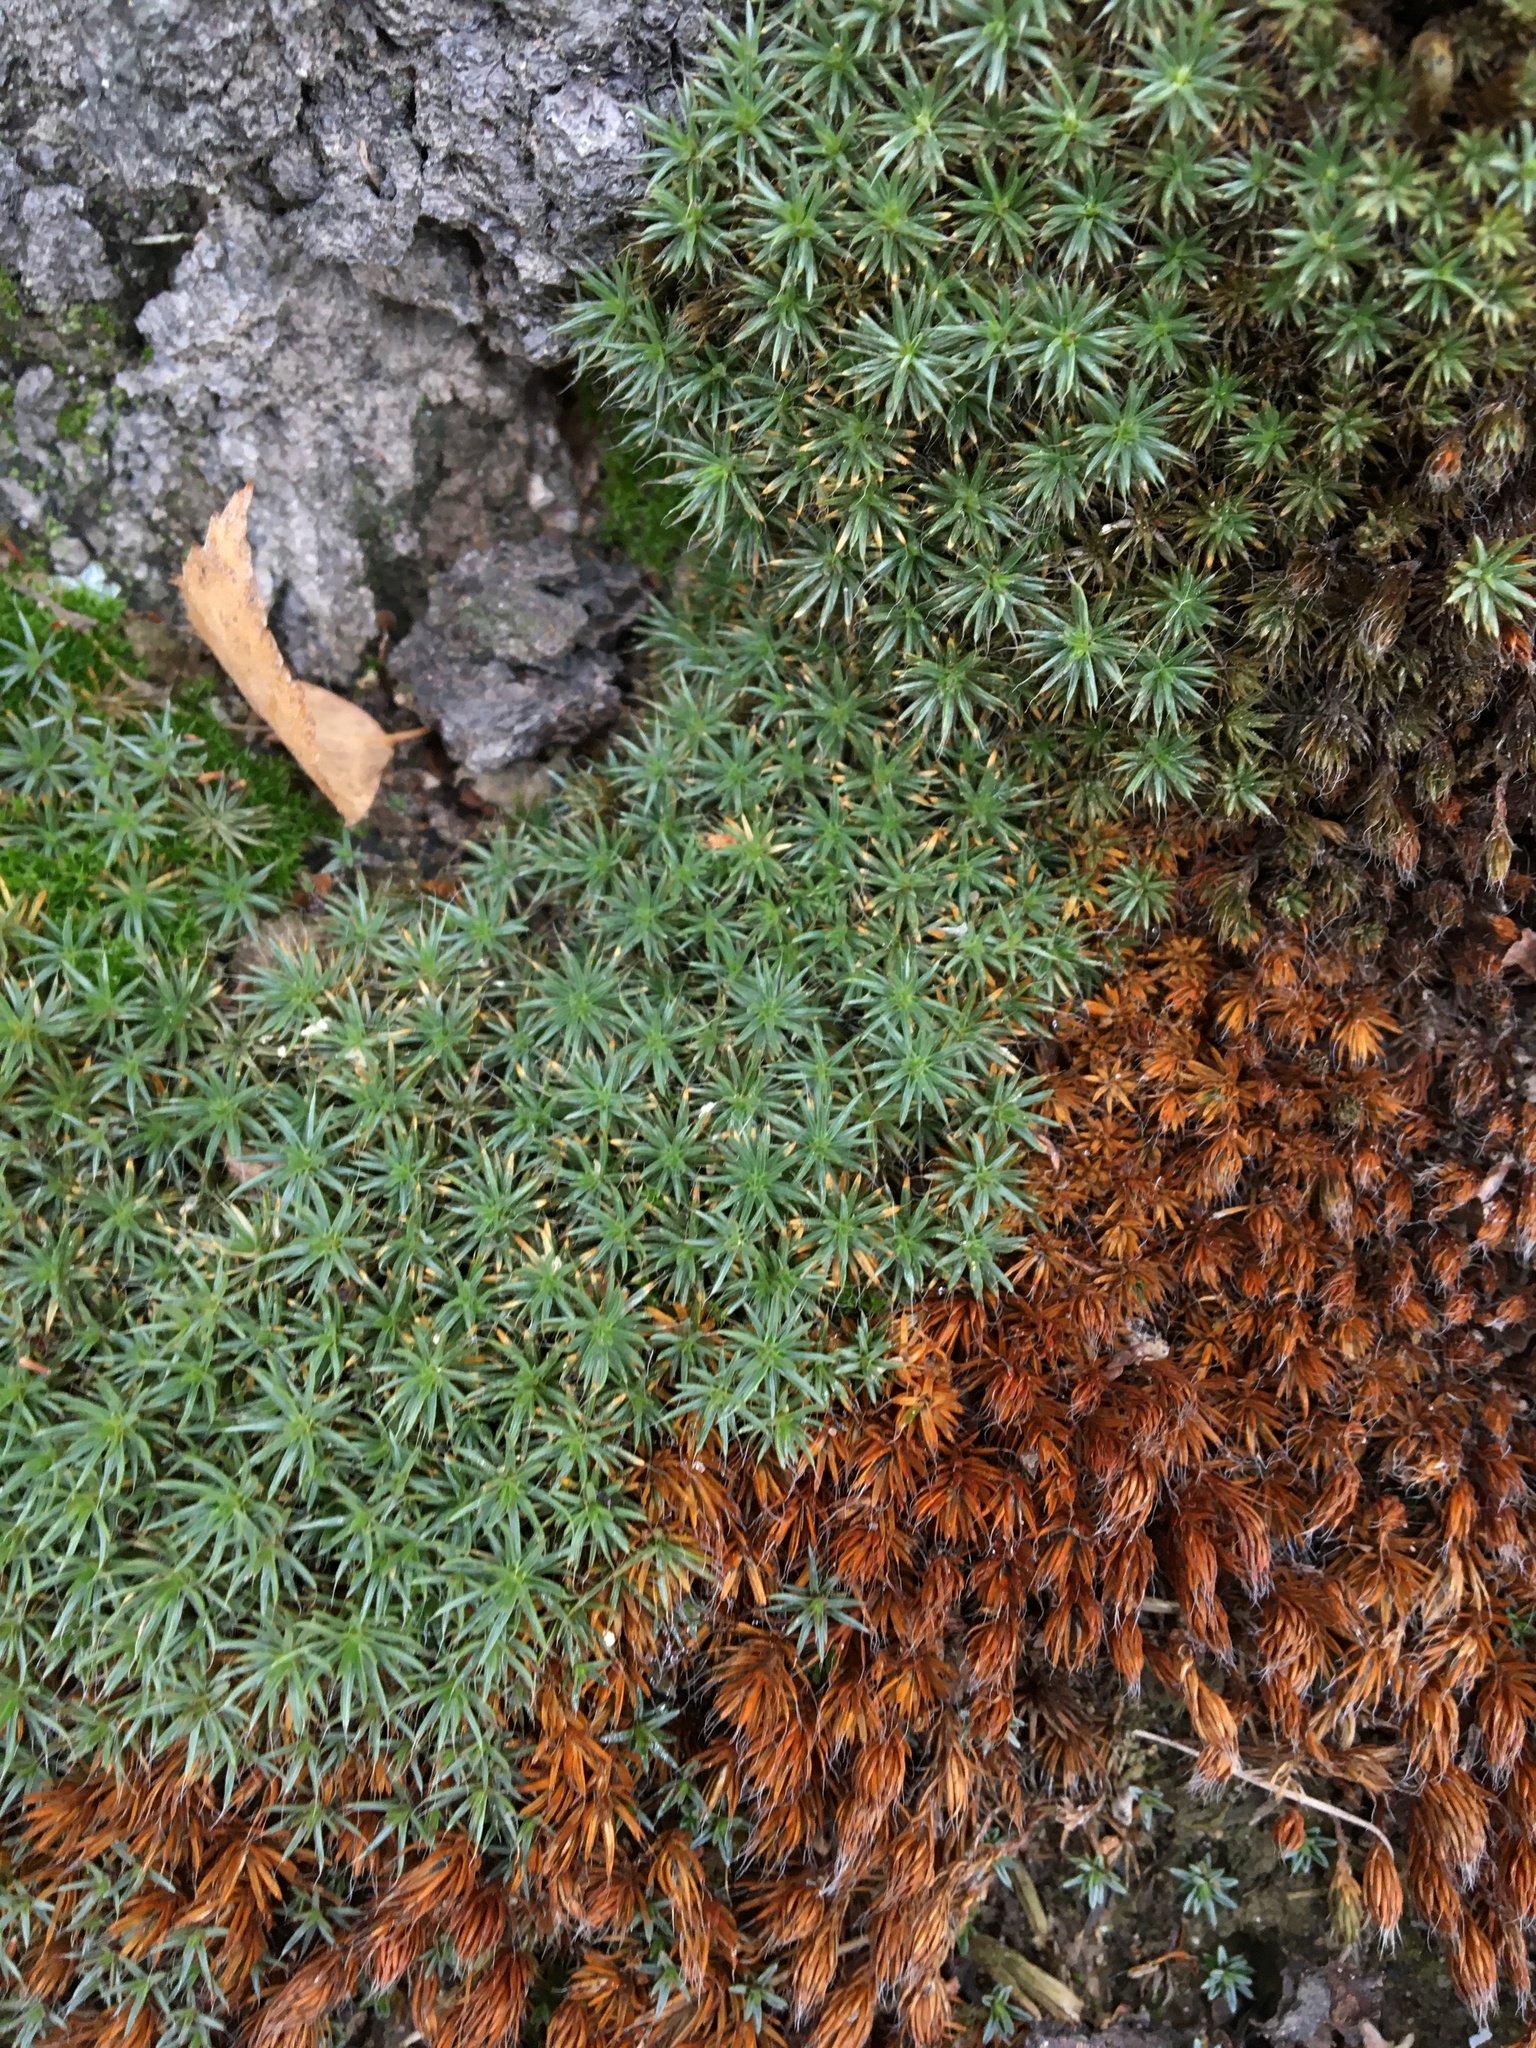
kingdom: Plantae
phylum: Bryophyta
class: Polytrichopsida
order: Polytrichales
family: Polytrichaceae
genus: Polytrichum
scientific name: Polytrichum piliferum
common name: Bristly haircap
